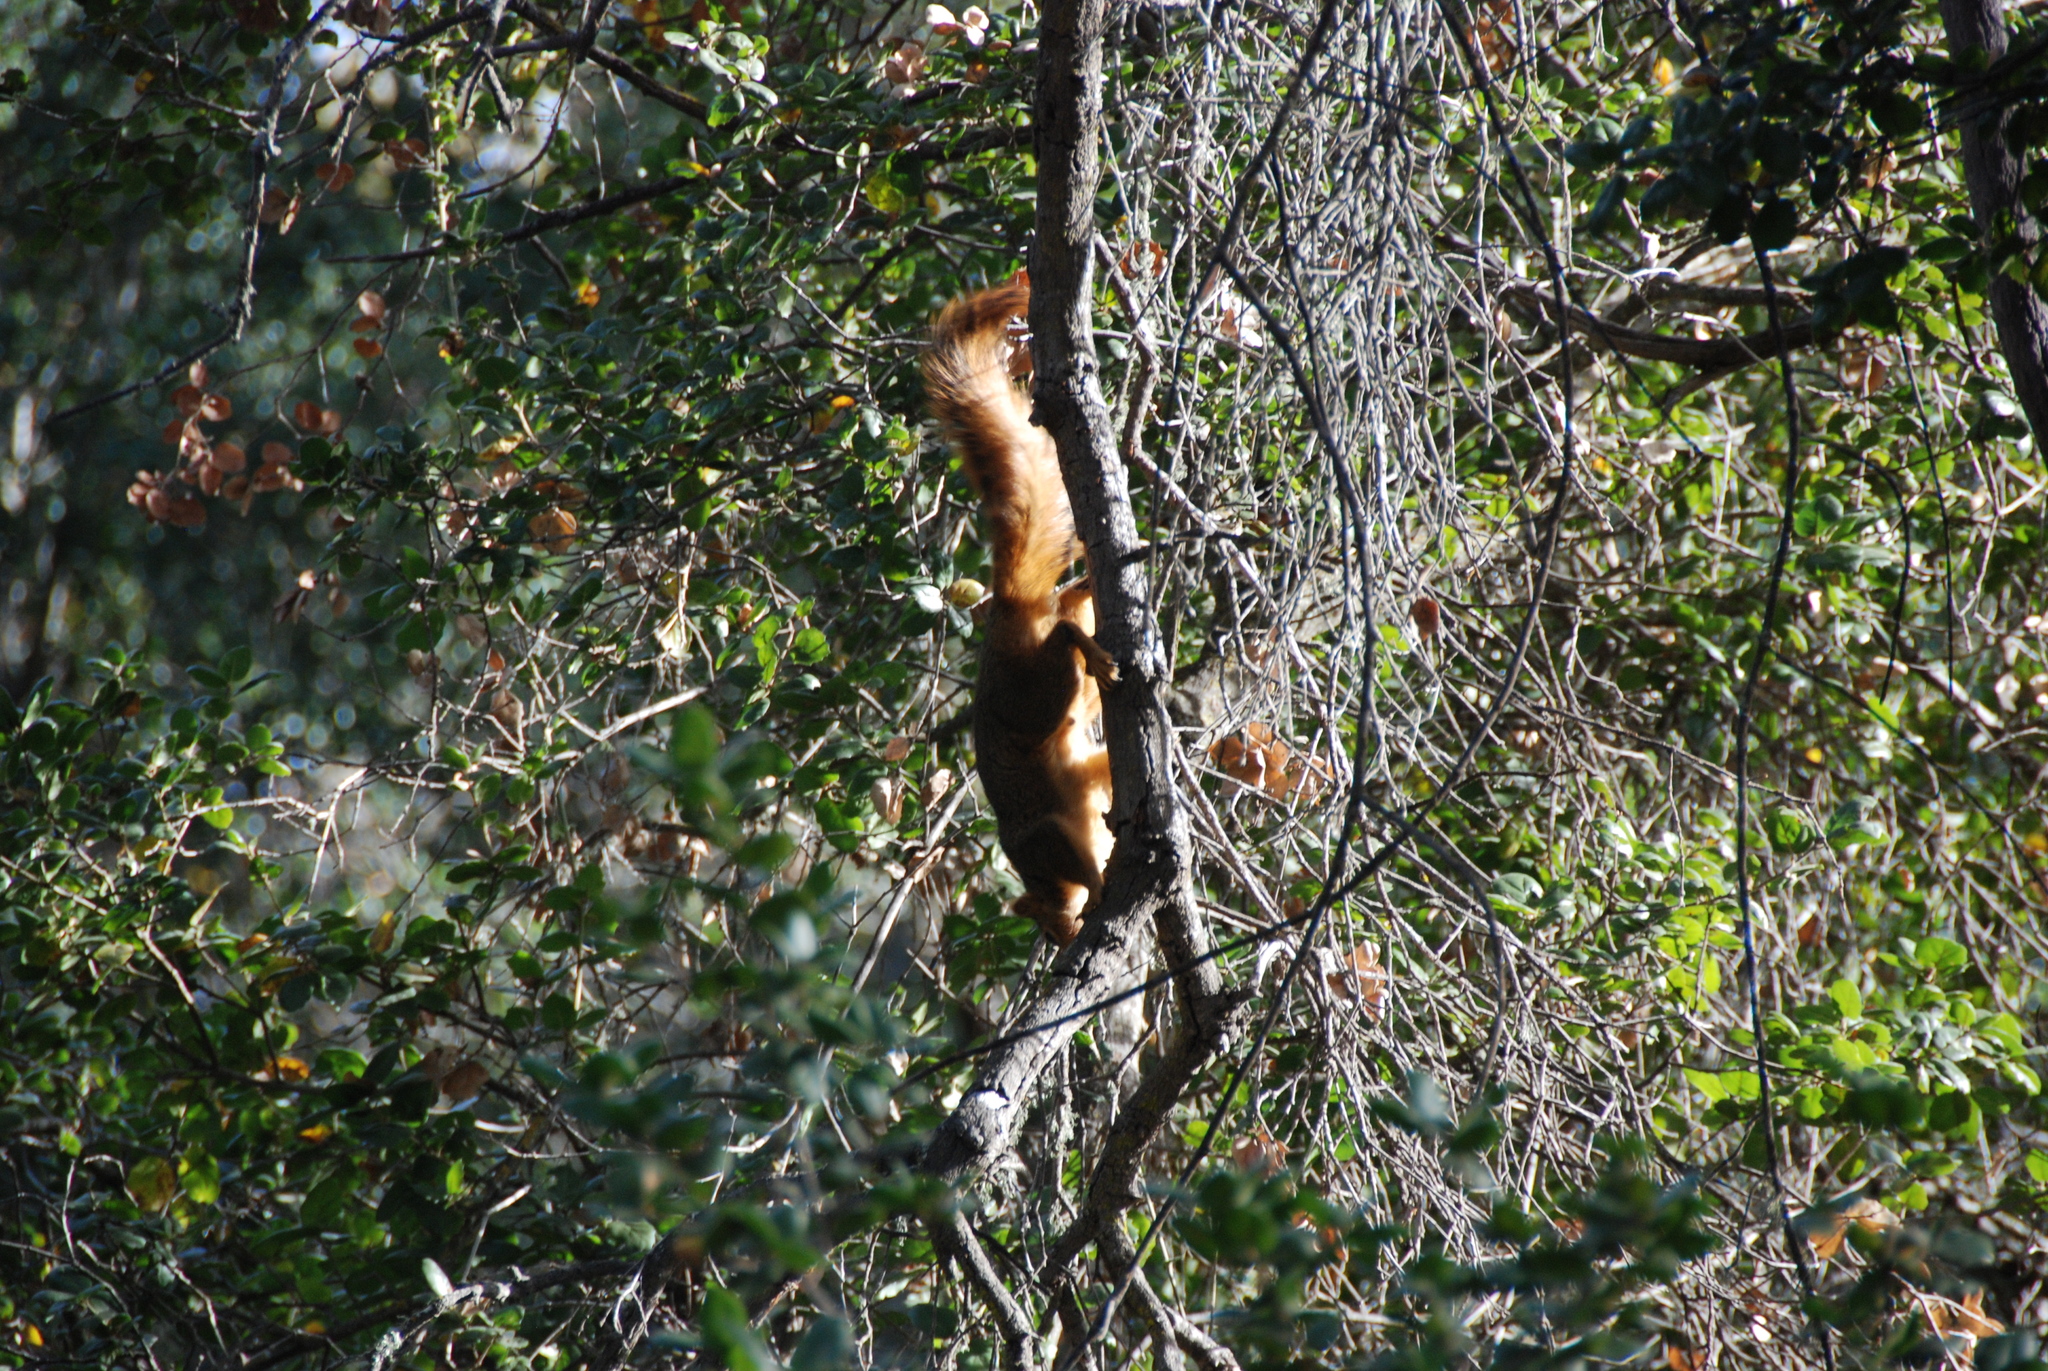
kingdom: Animalia
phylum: Chordata
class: Mammalia
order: Rodentia
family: Sciuridae
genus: Sciurus
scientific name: Sciurus niger
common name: Fox squirrel
